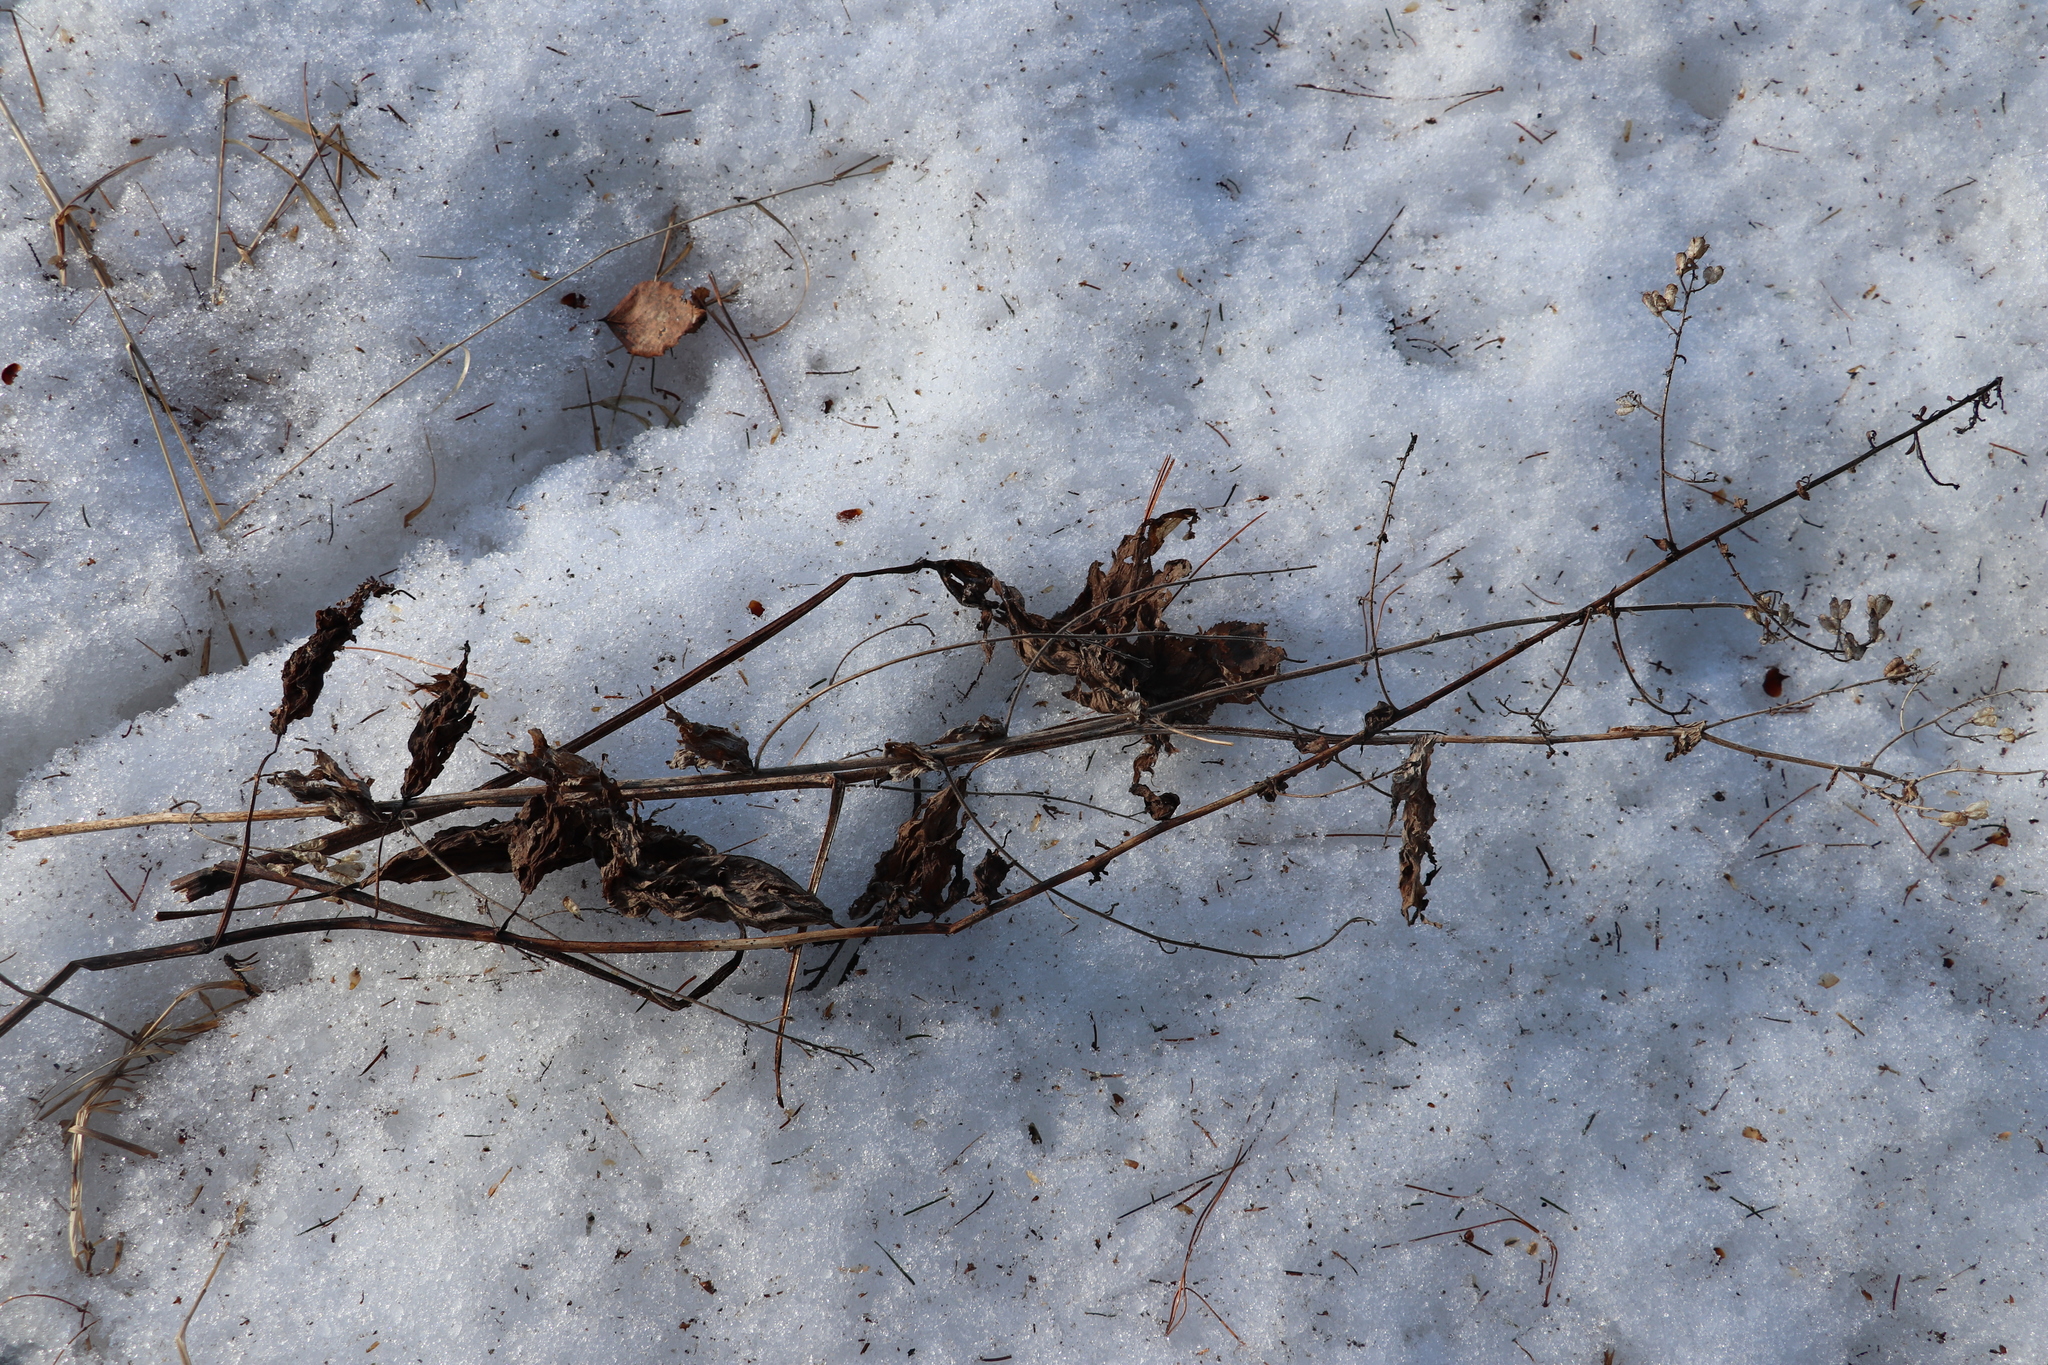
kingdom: Plantae
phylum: Tracheophyta
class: Magnoliopsida
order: Ranunculales
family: Ranunculaceae
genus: Aconitum
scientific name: Aconitum septentrionale
